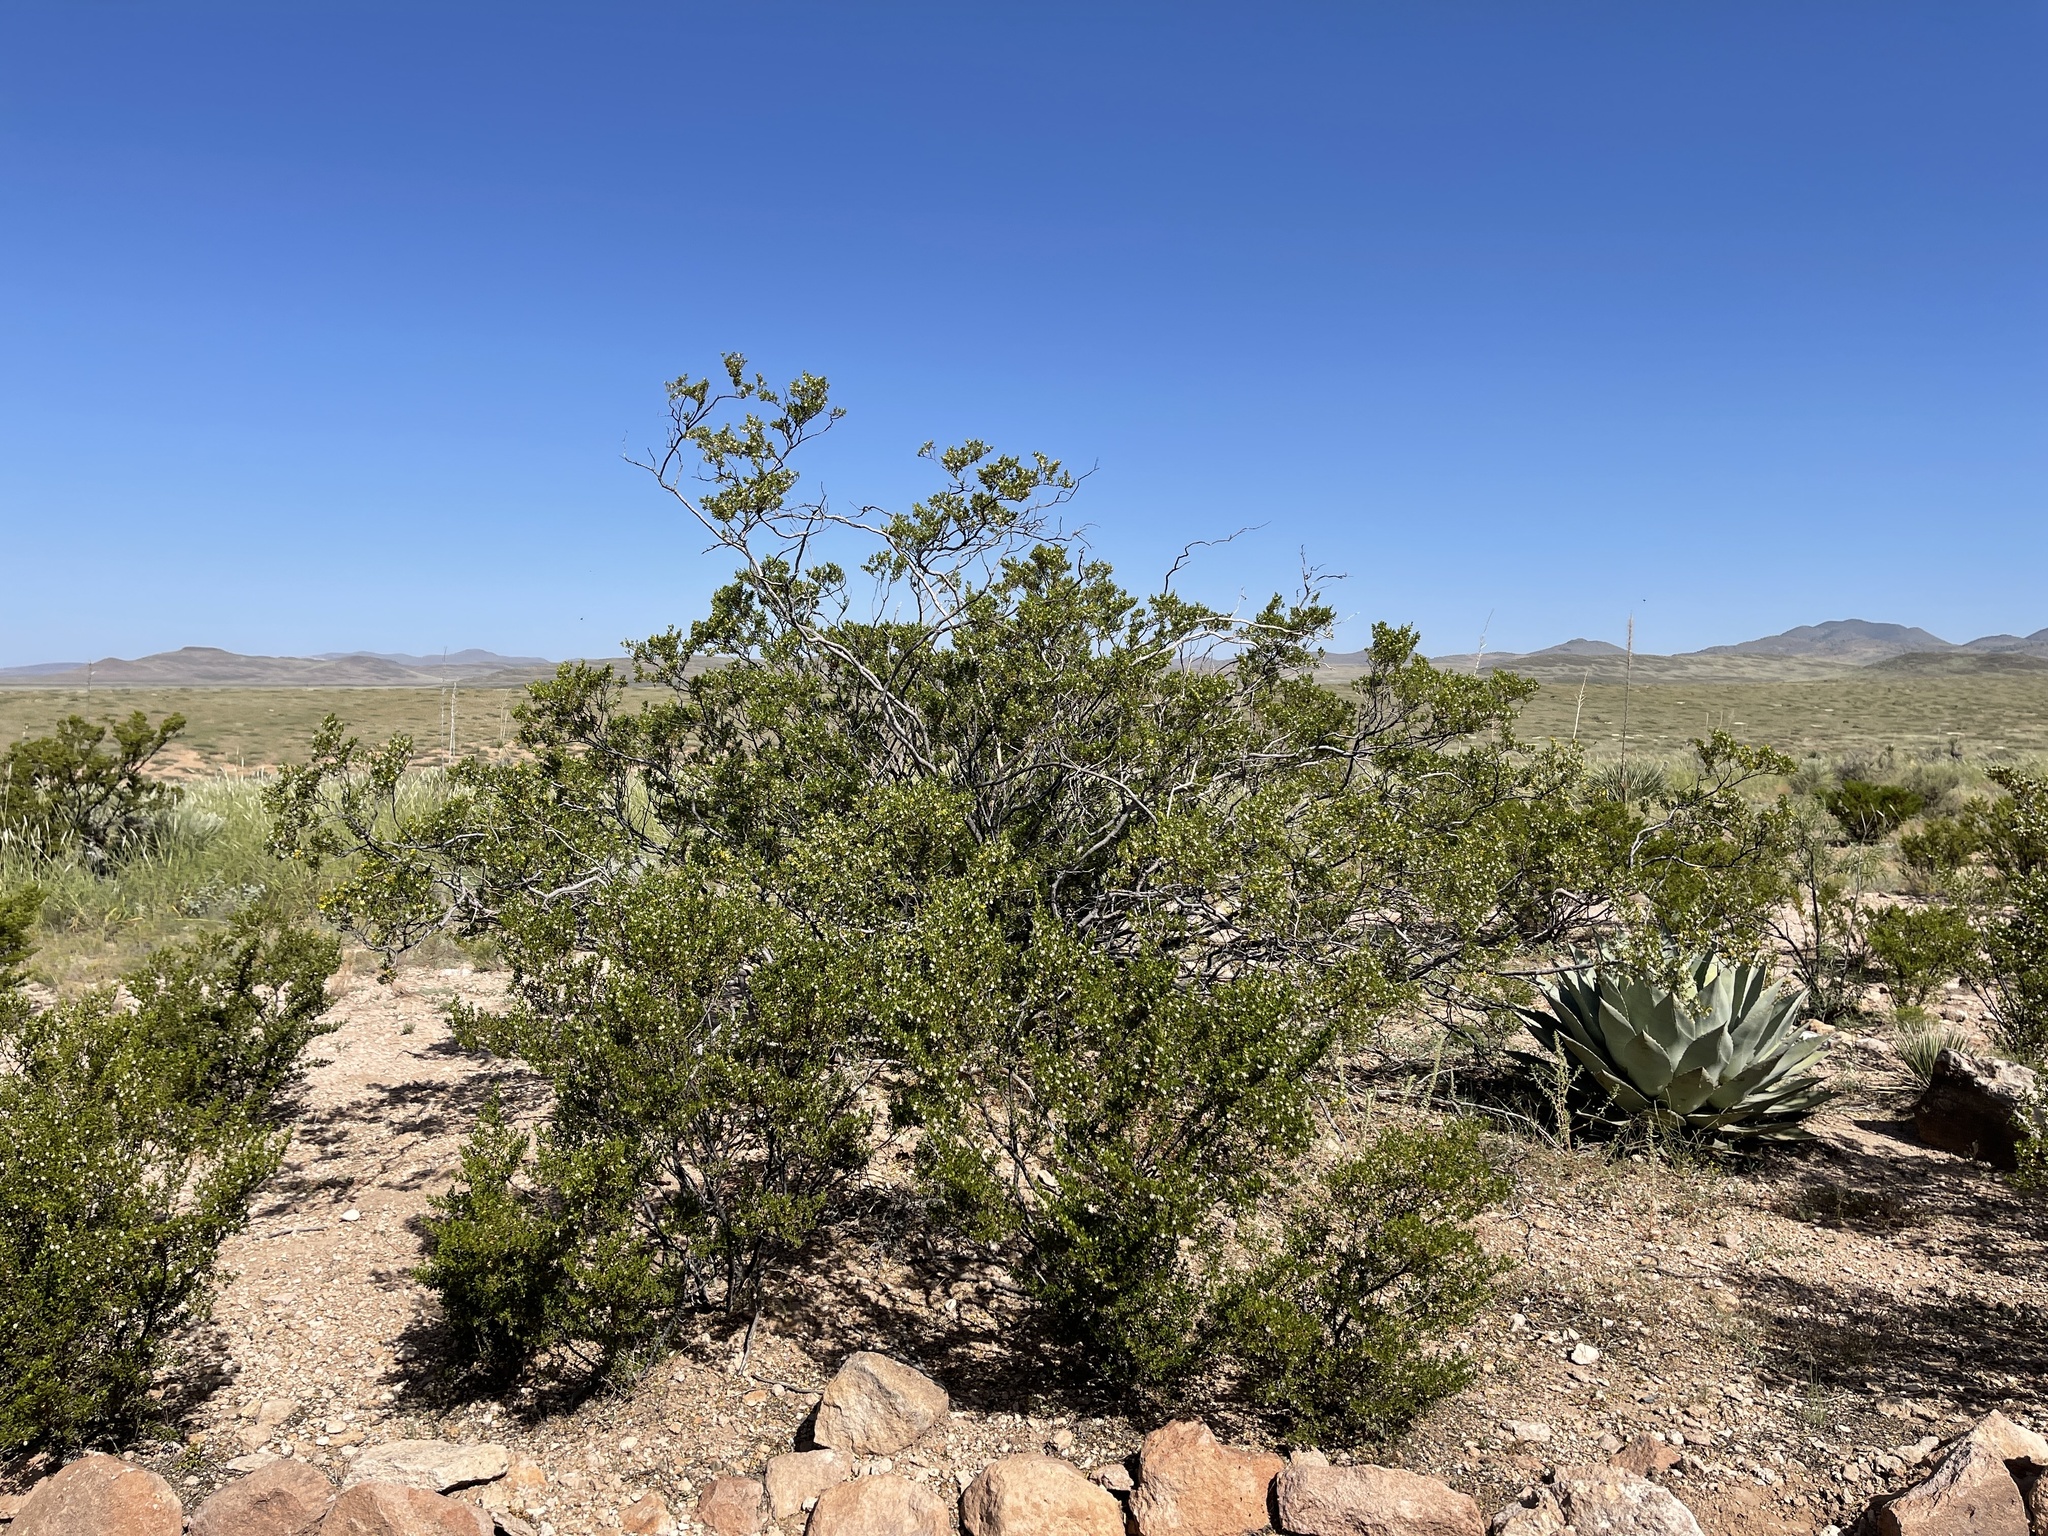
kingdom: Plantae
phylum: Tracheophyta
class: Magnoliopsida
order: Zygophyllales
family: Zygophyllaceae
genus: Larrea
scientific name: Larrea tridentata
